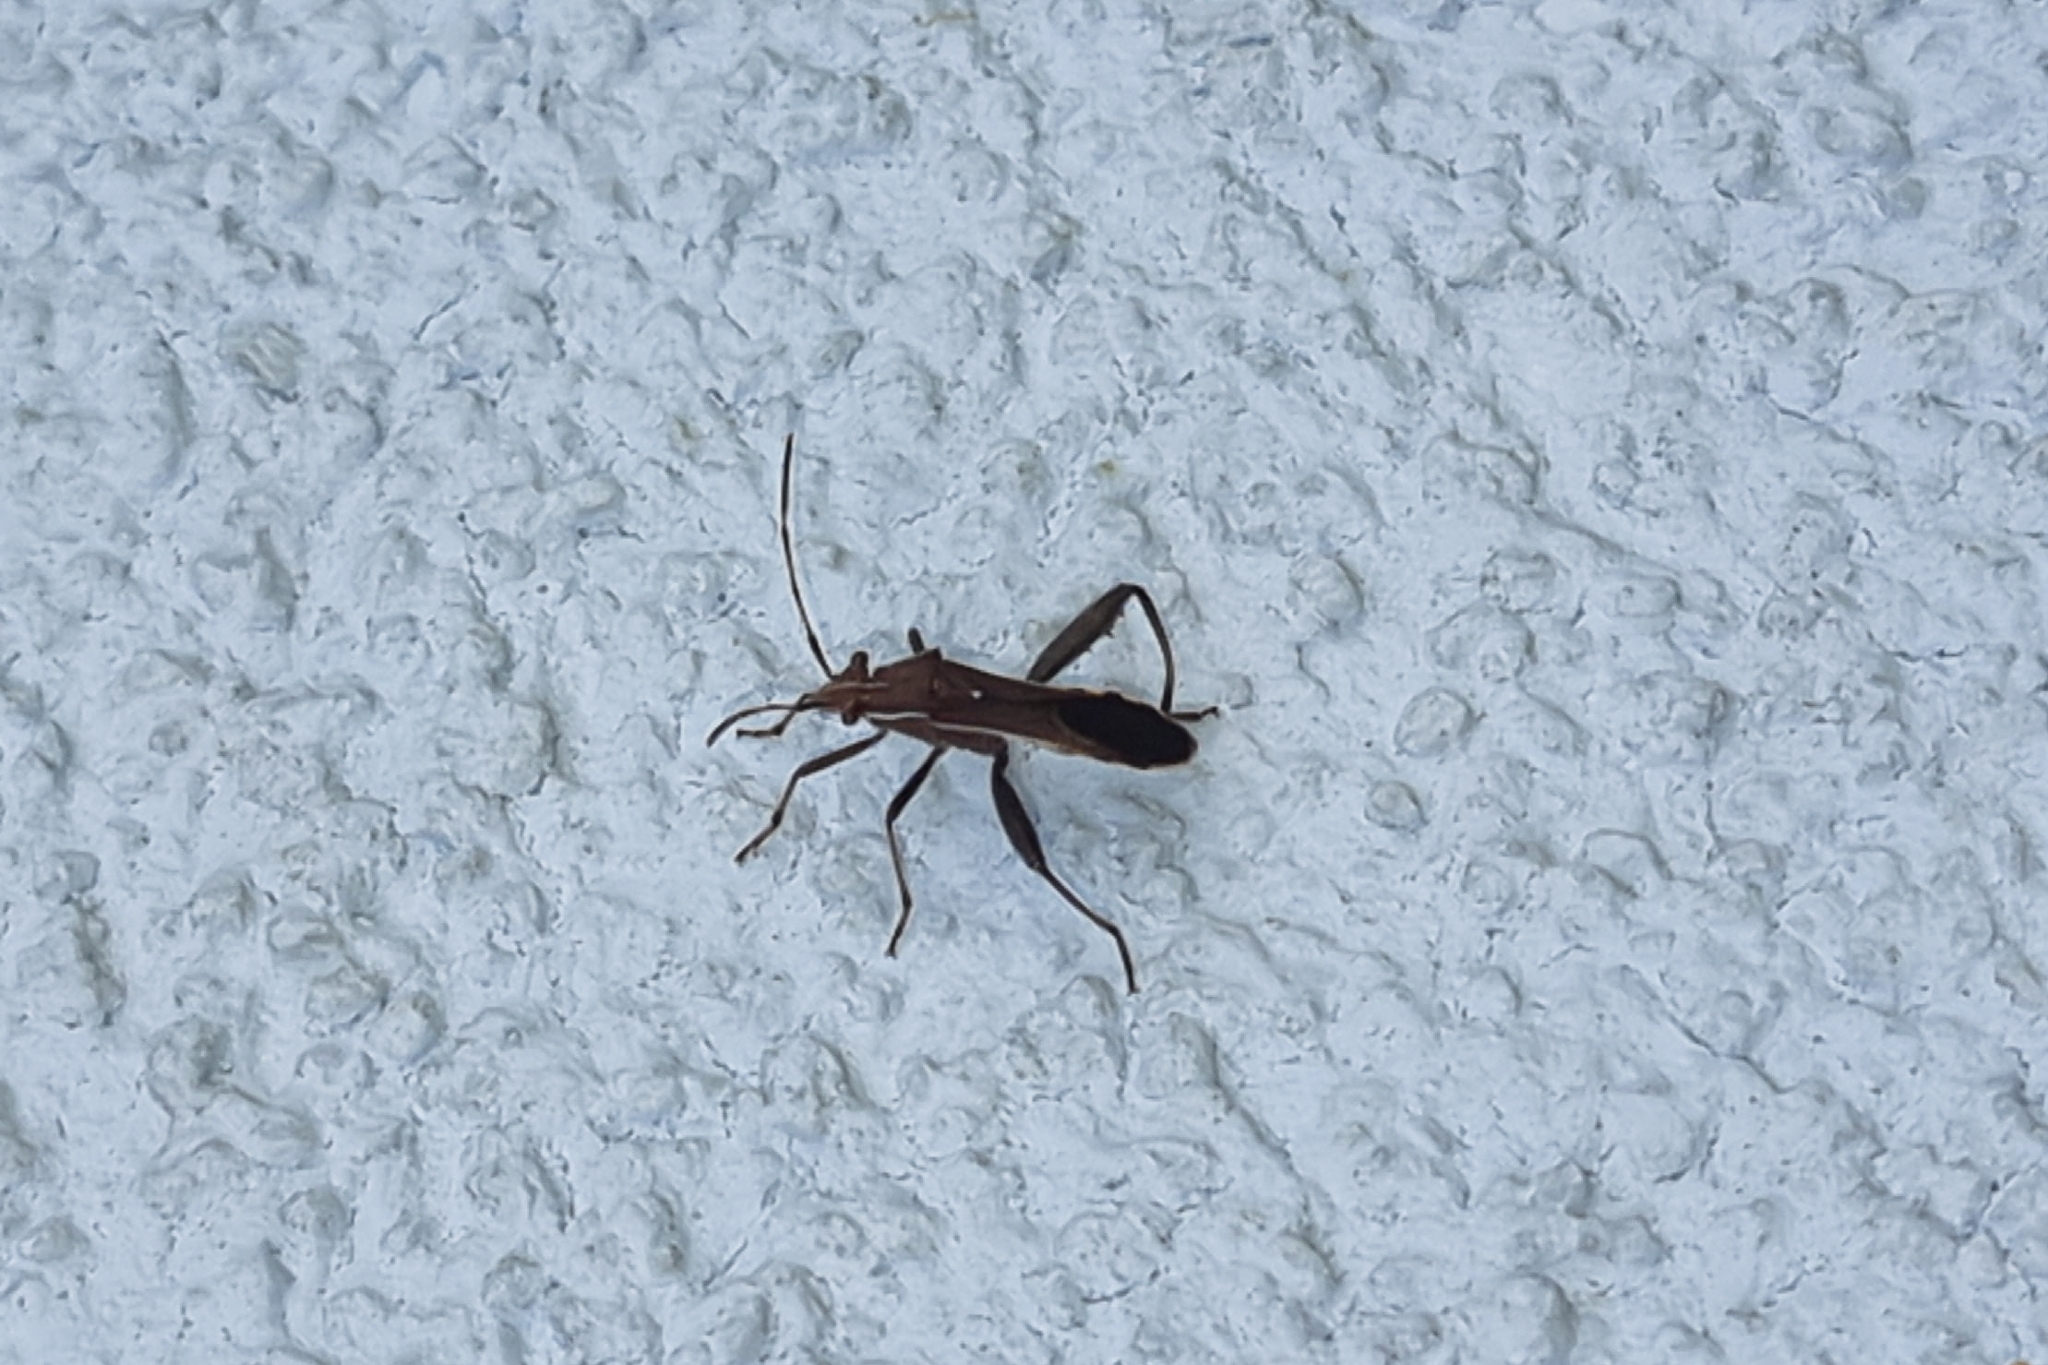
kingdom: Animalia
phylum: Arthropoda
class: Insecta
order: Hemiptera
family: Alydidae
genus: Camptopus
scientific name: Camptopus lateralis
